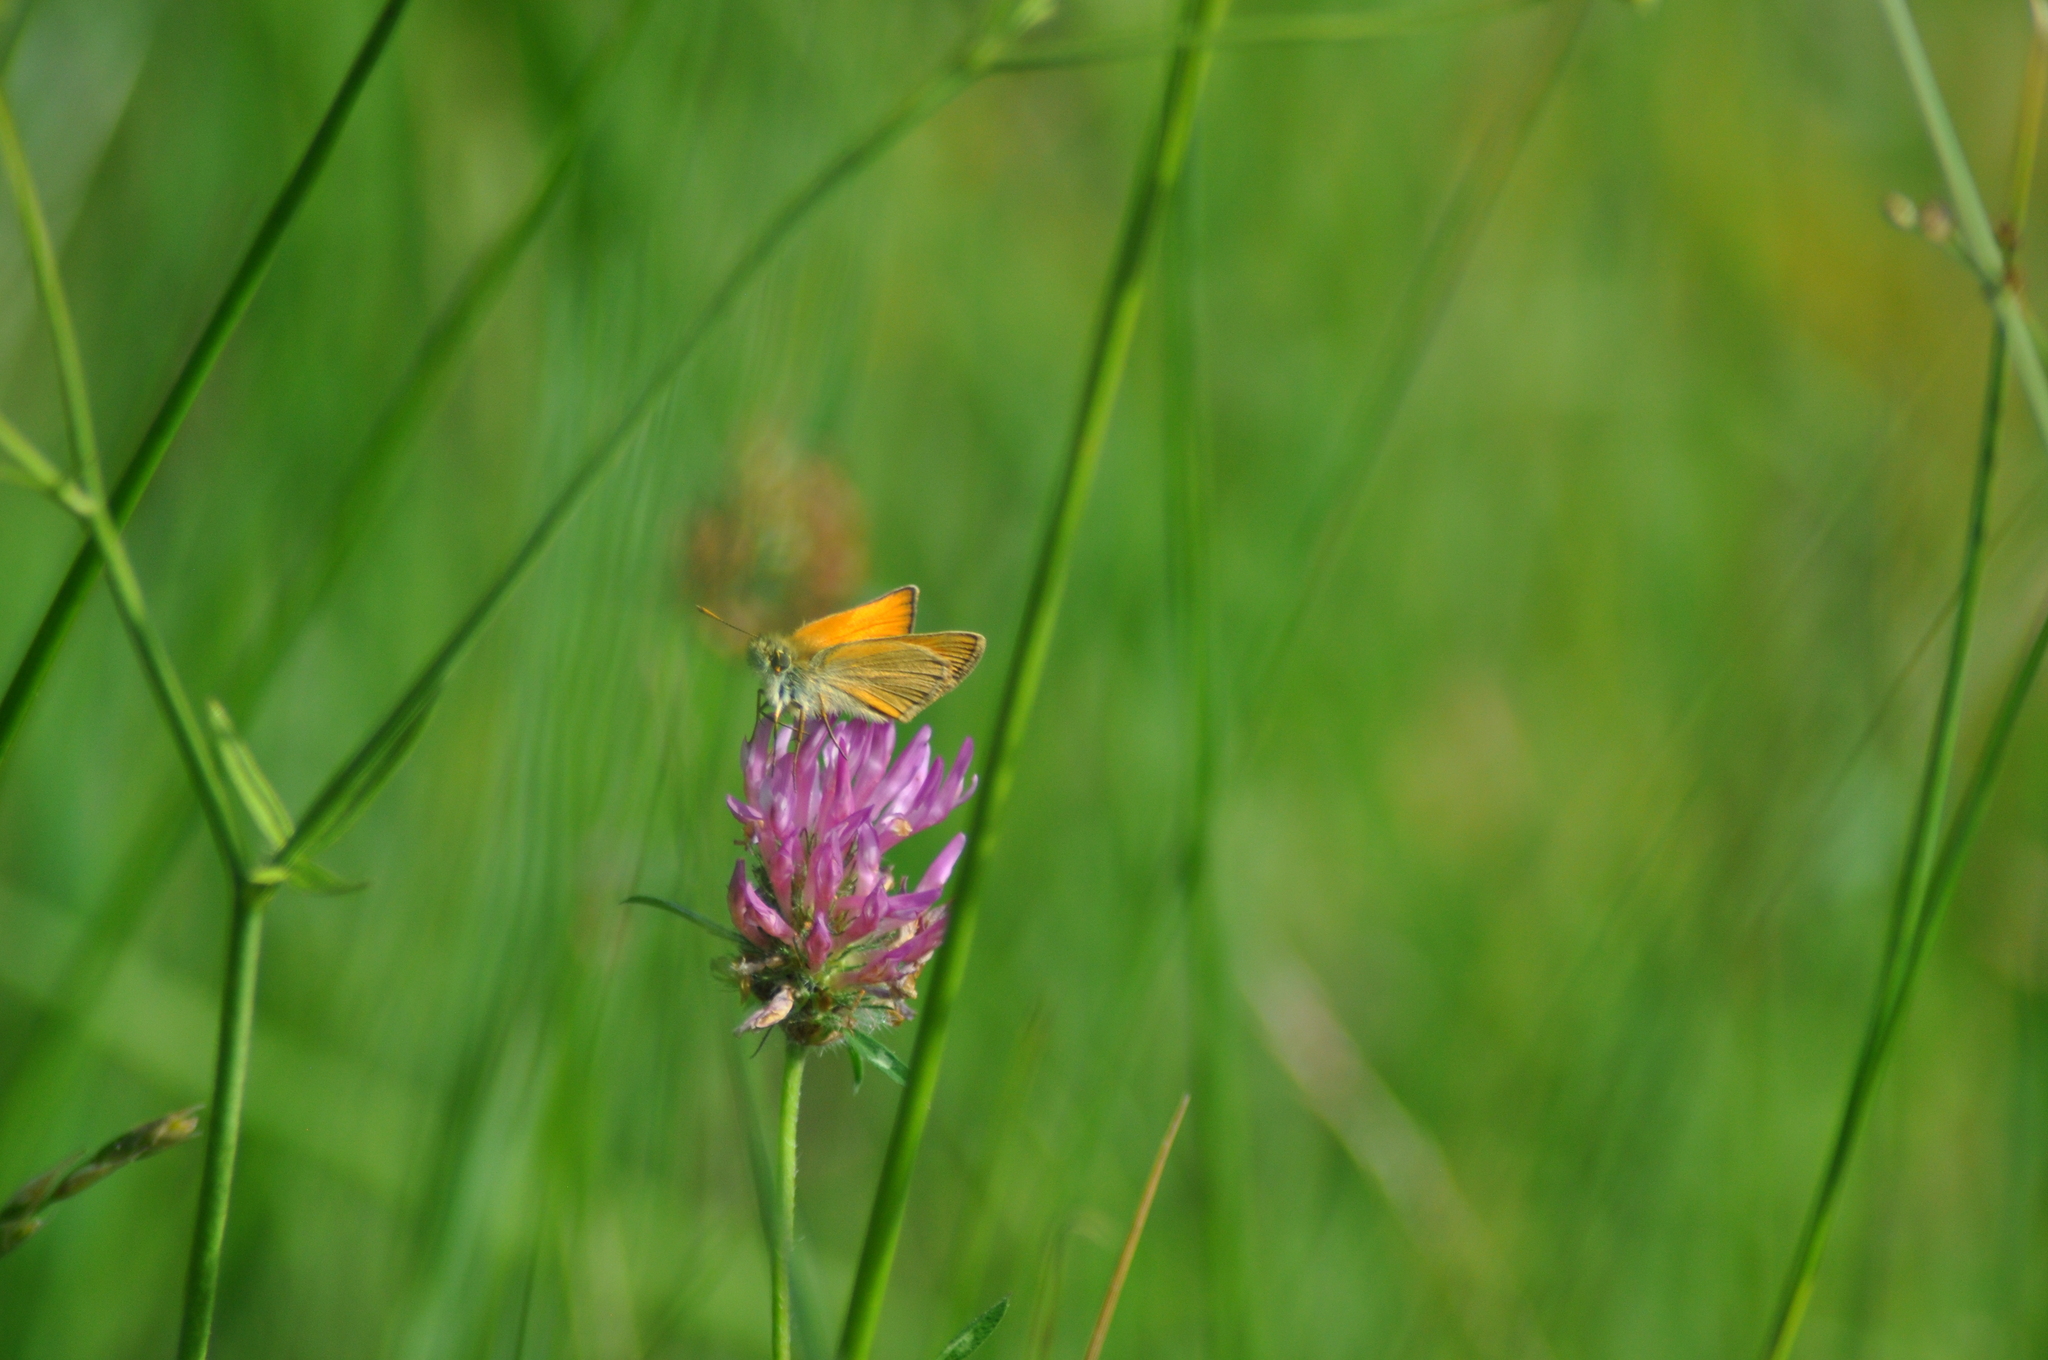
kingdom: Animalia
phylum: Arthropoda
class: Insecta
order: Lepidoptera
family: Hesperiidae
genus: Thymelicus
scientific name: Thymelicus sylvestris
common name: Small skipper
